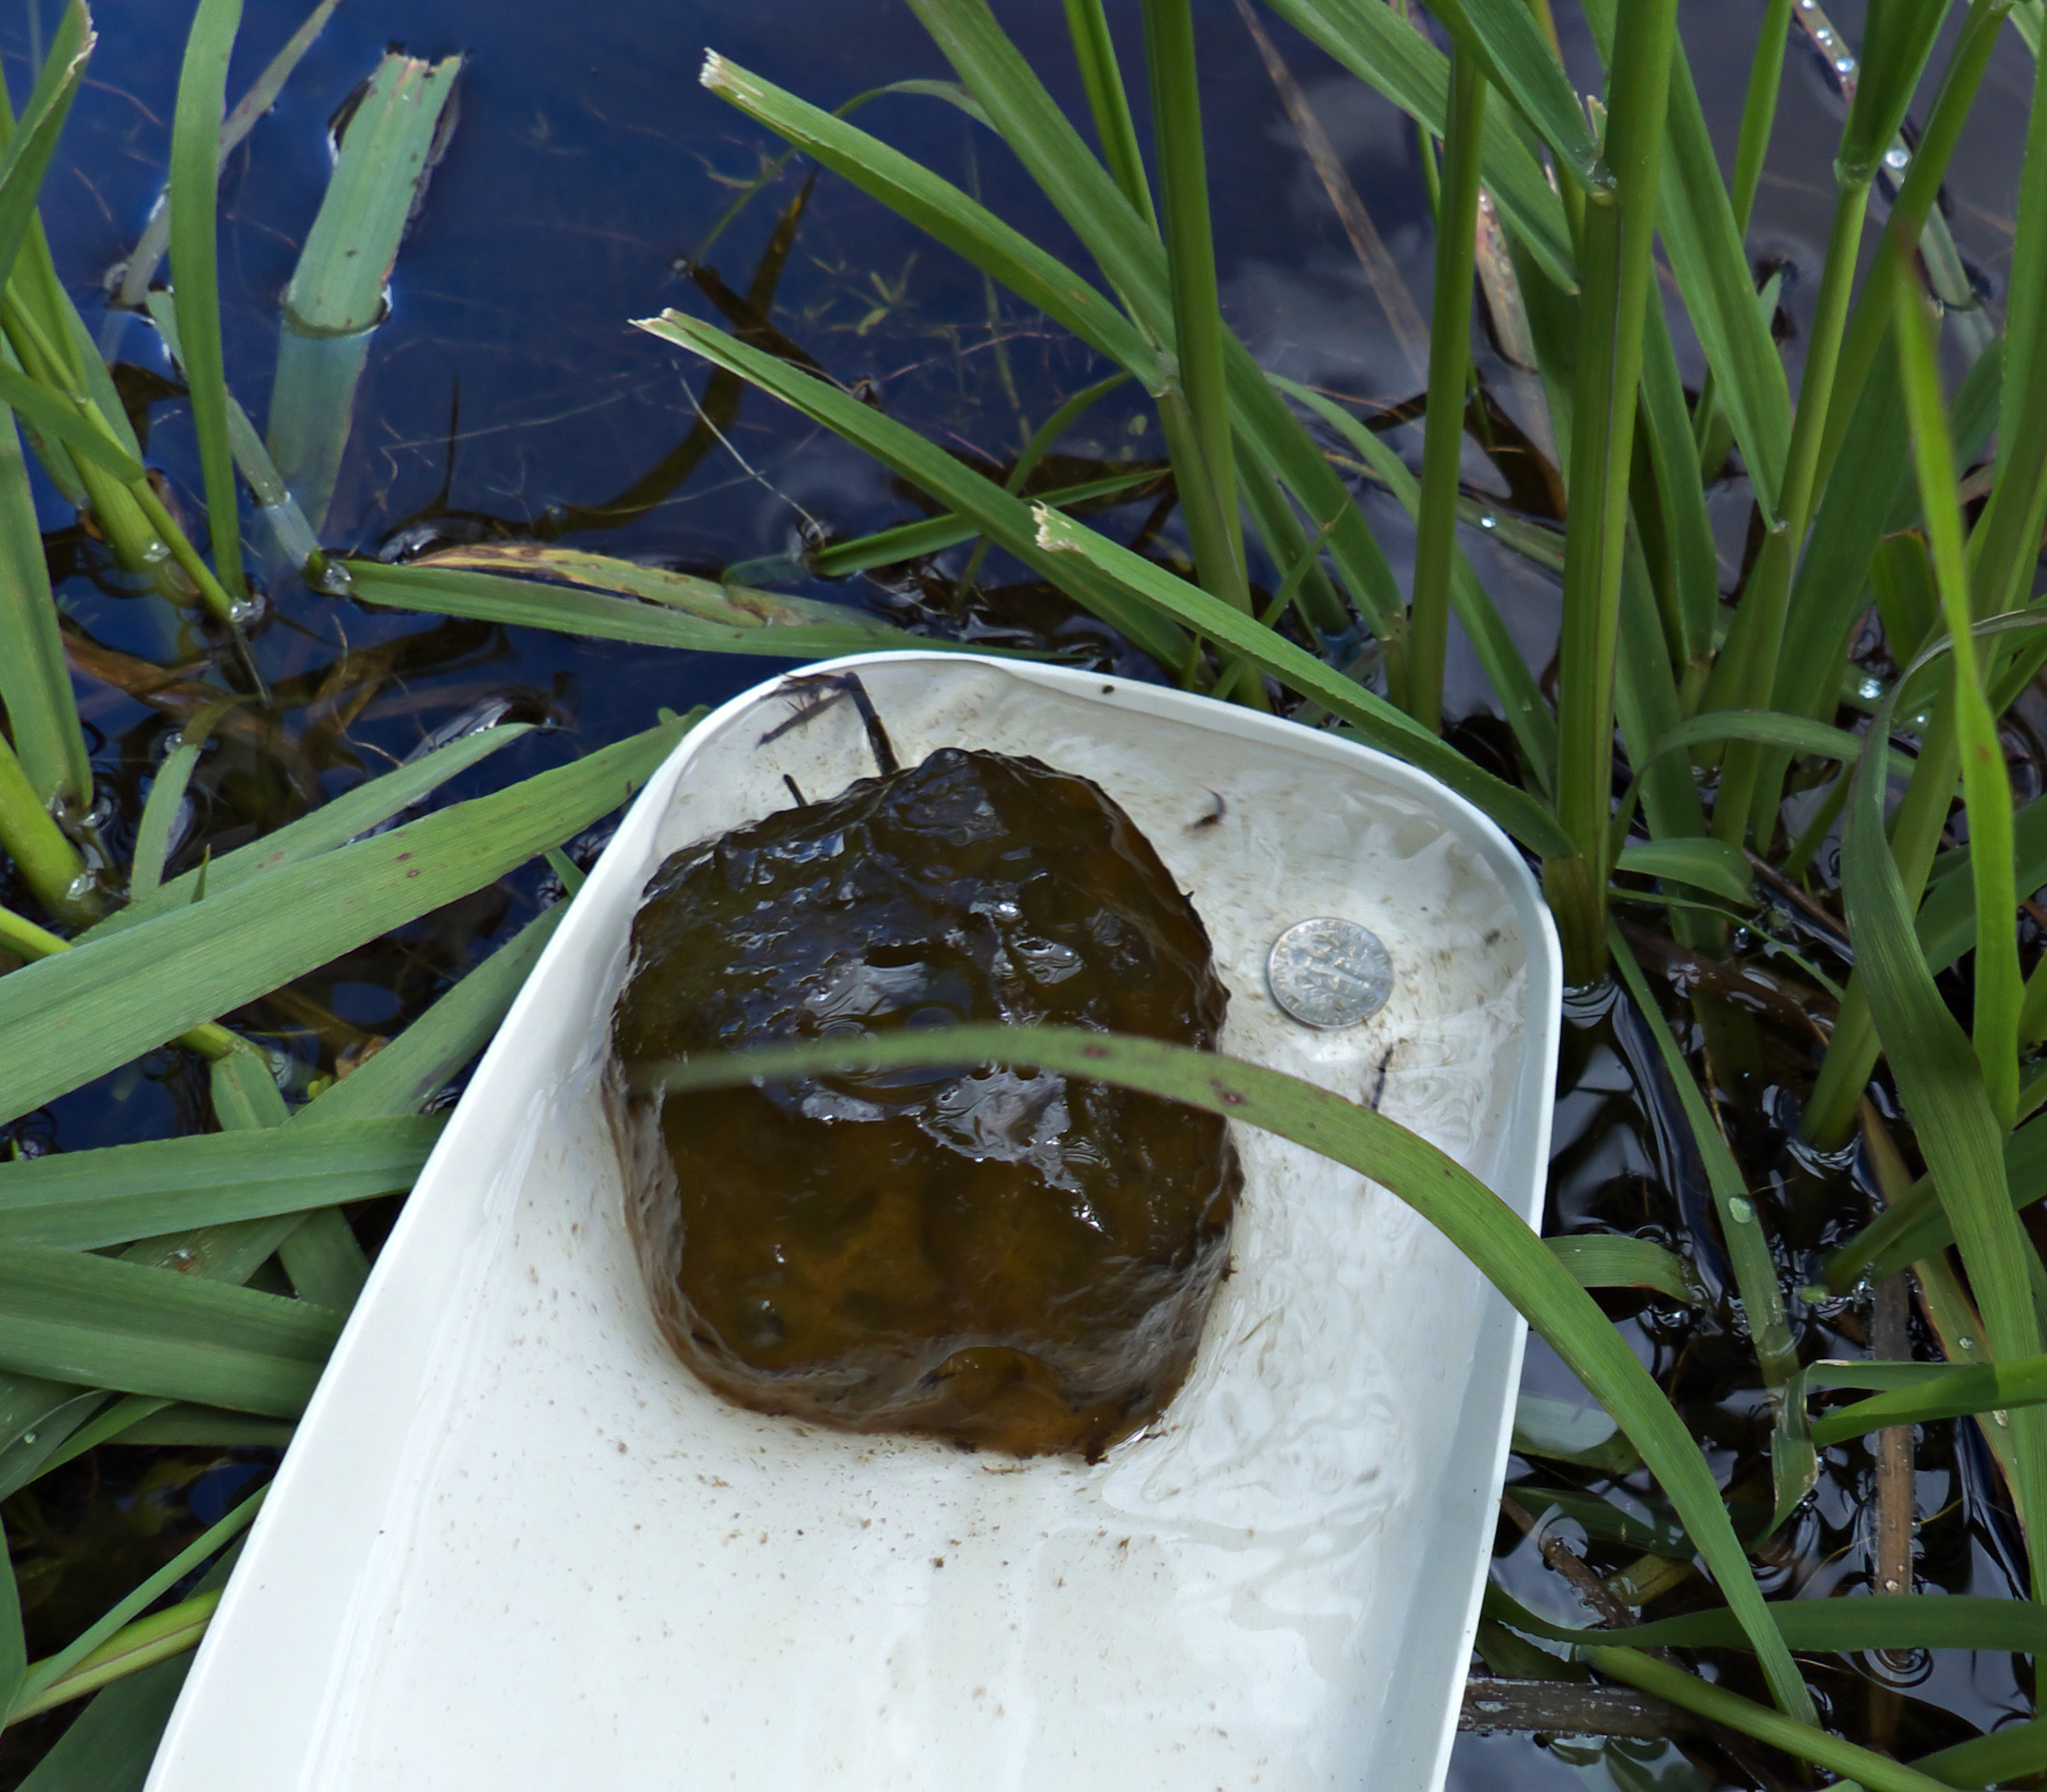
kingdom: Animalia
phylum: Chordata
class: Amphibia
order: Caudata
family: Ambystomatidae
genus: Ambystoma
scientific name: Ambystoma gracile
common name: Northwestern salamander
